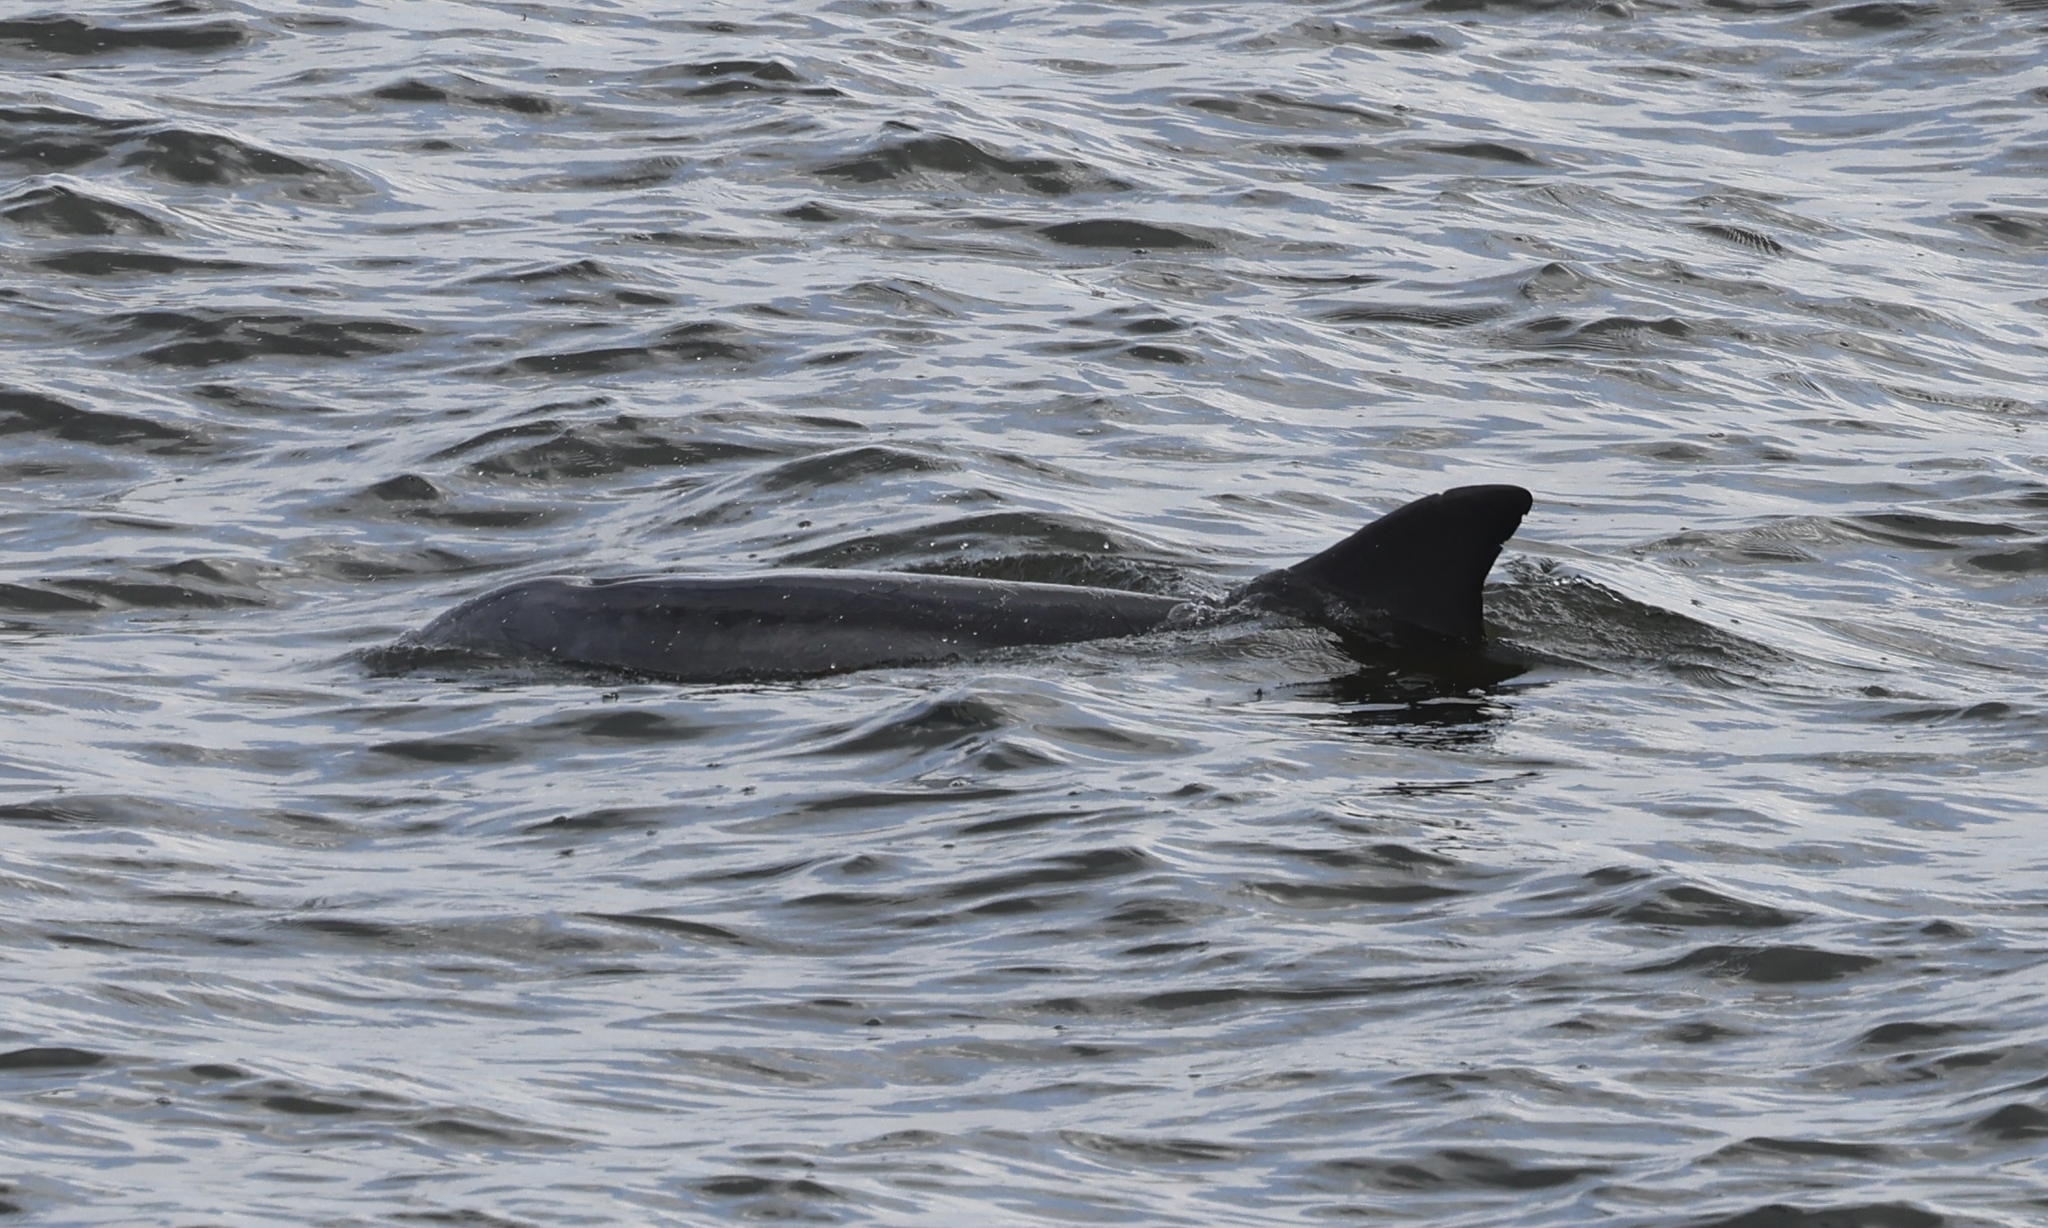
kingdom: Animalia
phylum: Chordata
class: Mammalia
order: Cetacea
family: Delphinidae
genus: Tursiops
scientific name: Tursiops truncatus
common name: Bottlenose dolphin
